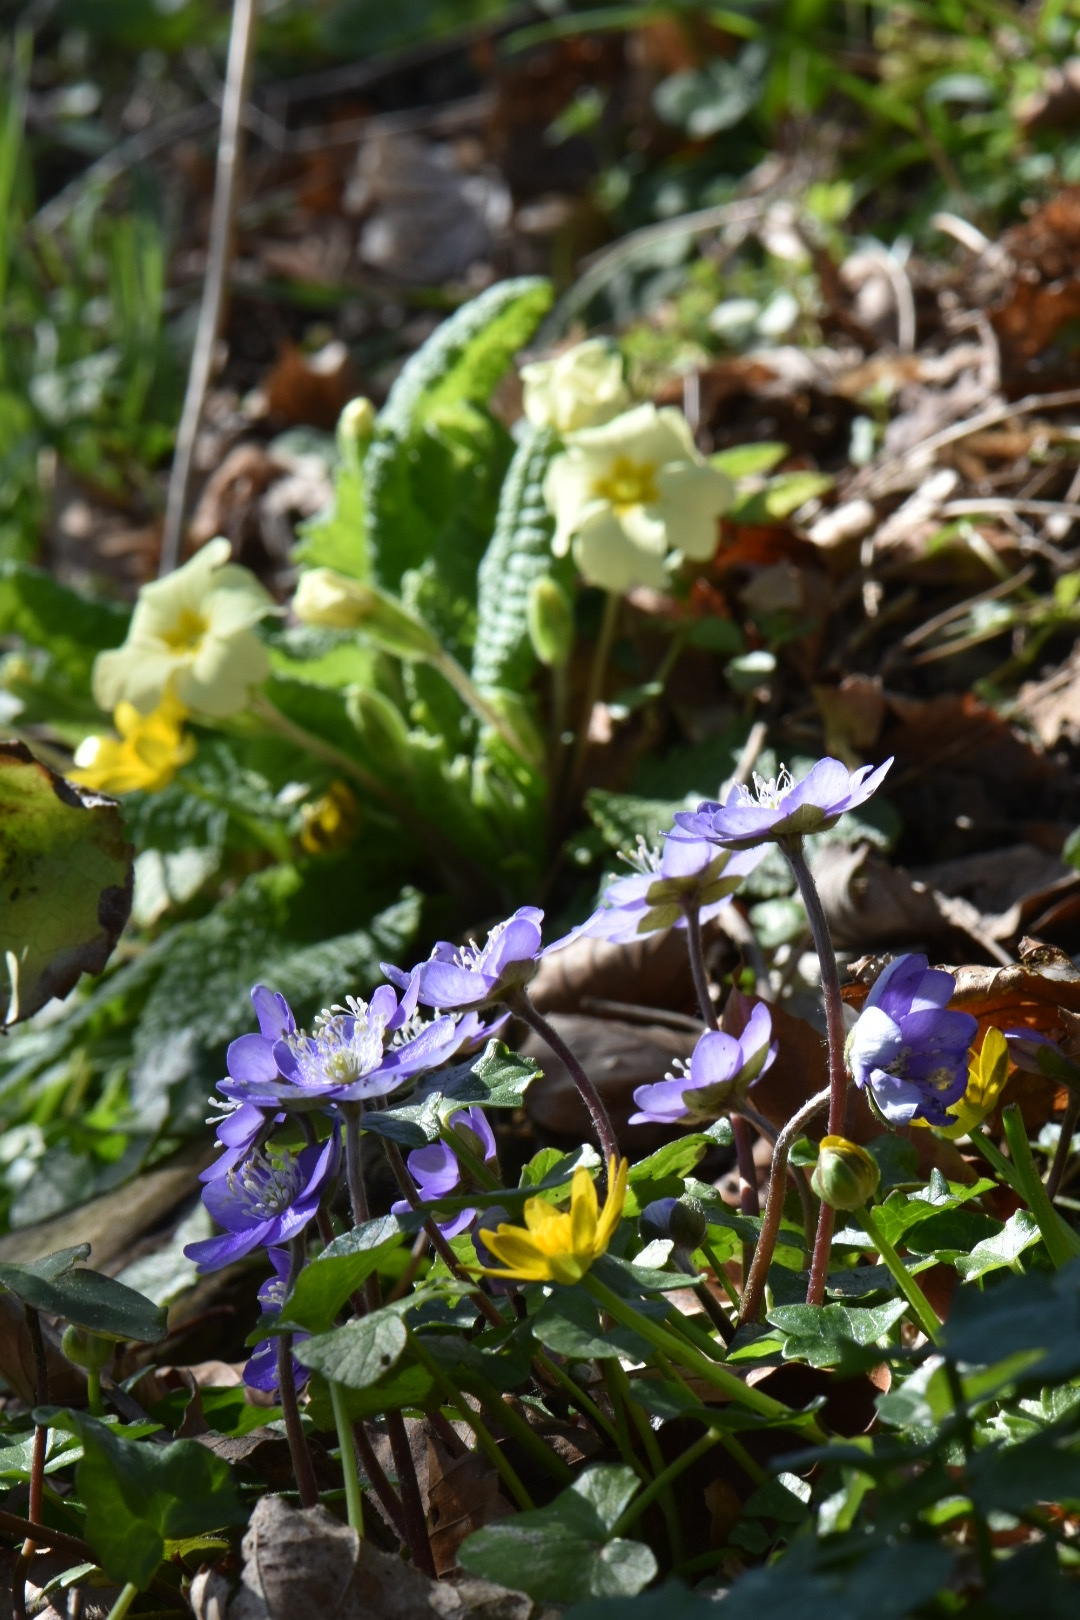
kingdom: Plantae
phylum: Tracheophyta
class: Magnoliopsida
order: Ranunculales
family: Ranunculaceae
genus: Hepatica
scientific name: Hepatica nobilis
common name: Liverleaf
